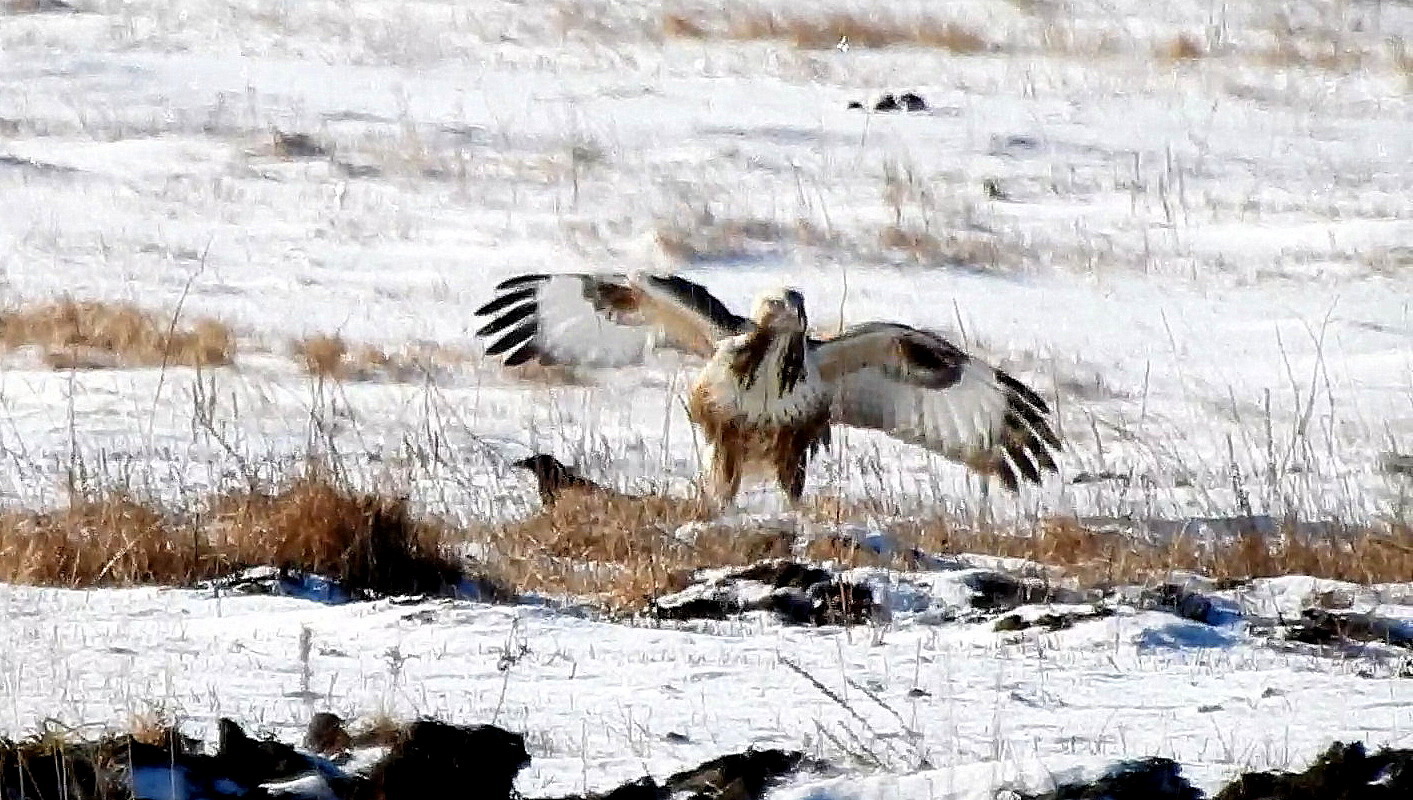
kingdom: Animalia
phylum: Chordata
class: Aves
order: Accipitriformes
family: Accipitridae
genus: Buteo
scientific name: Buteo hemilasius
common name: Upland buzzard
